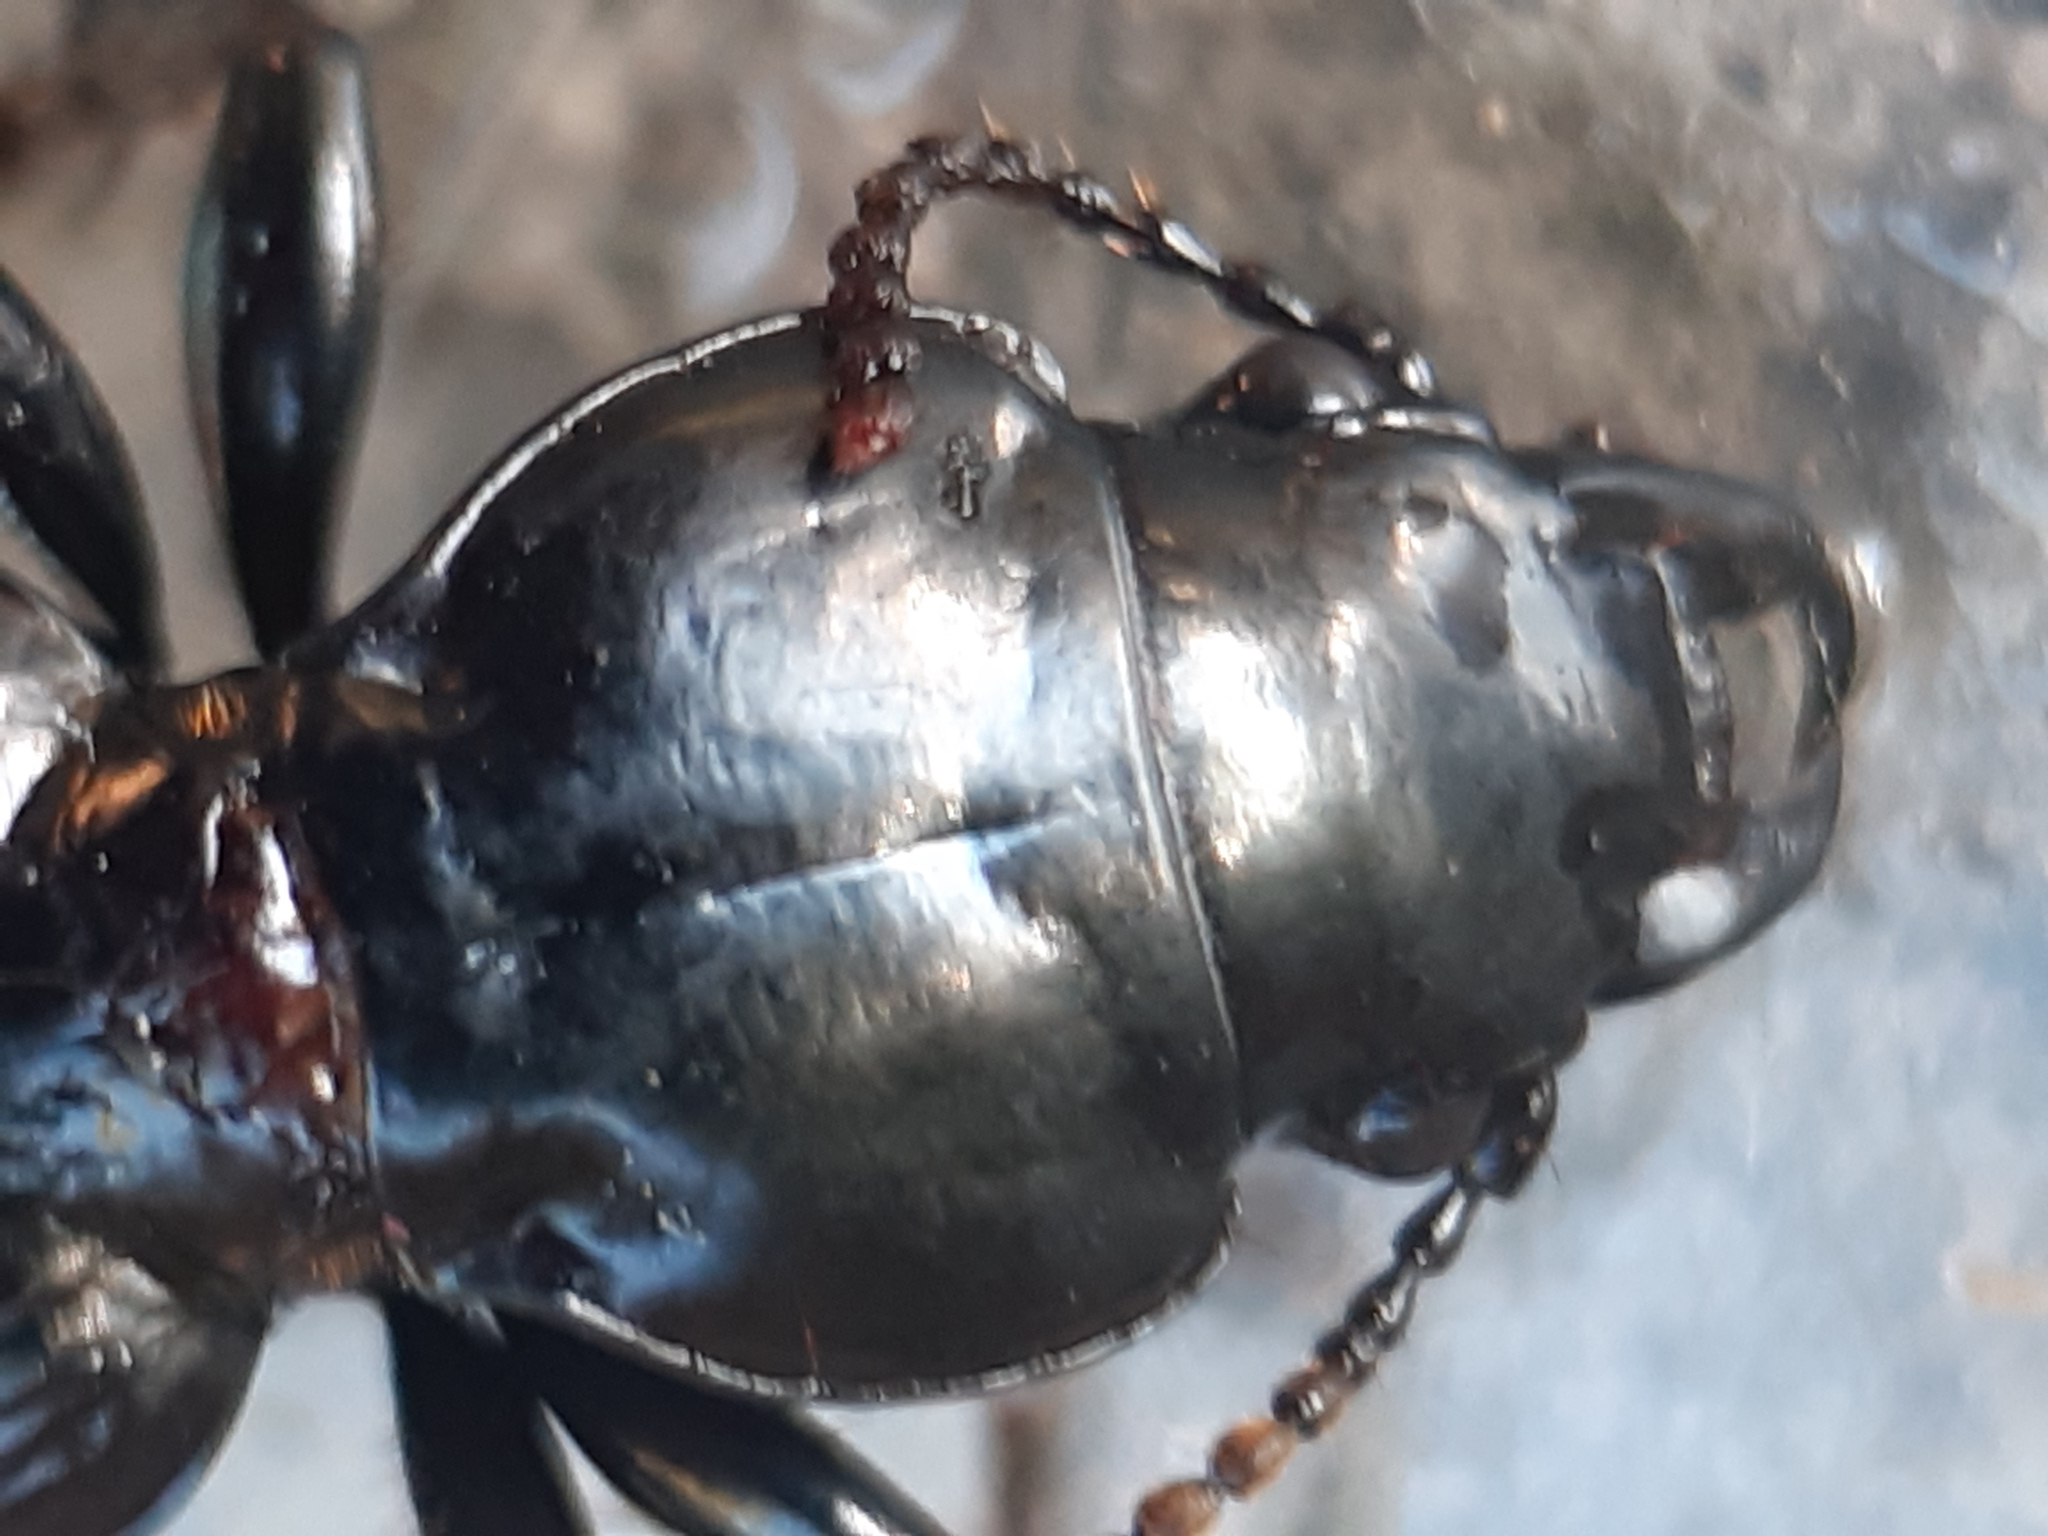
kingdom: Animalia
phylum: Arthropoda
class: Insecta
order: Coleoptera
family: Carabidae
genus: Mecodema
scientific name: Mecodema fulgidum
